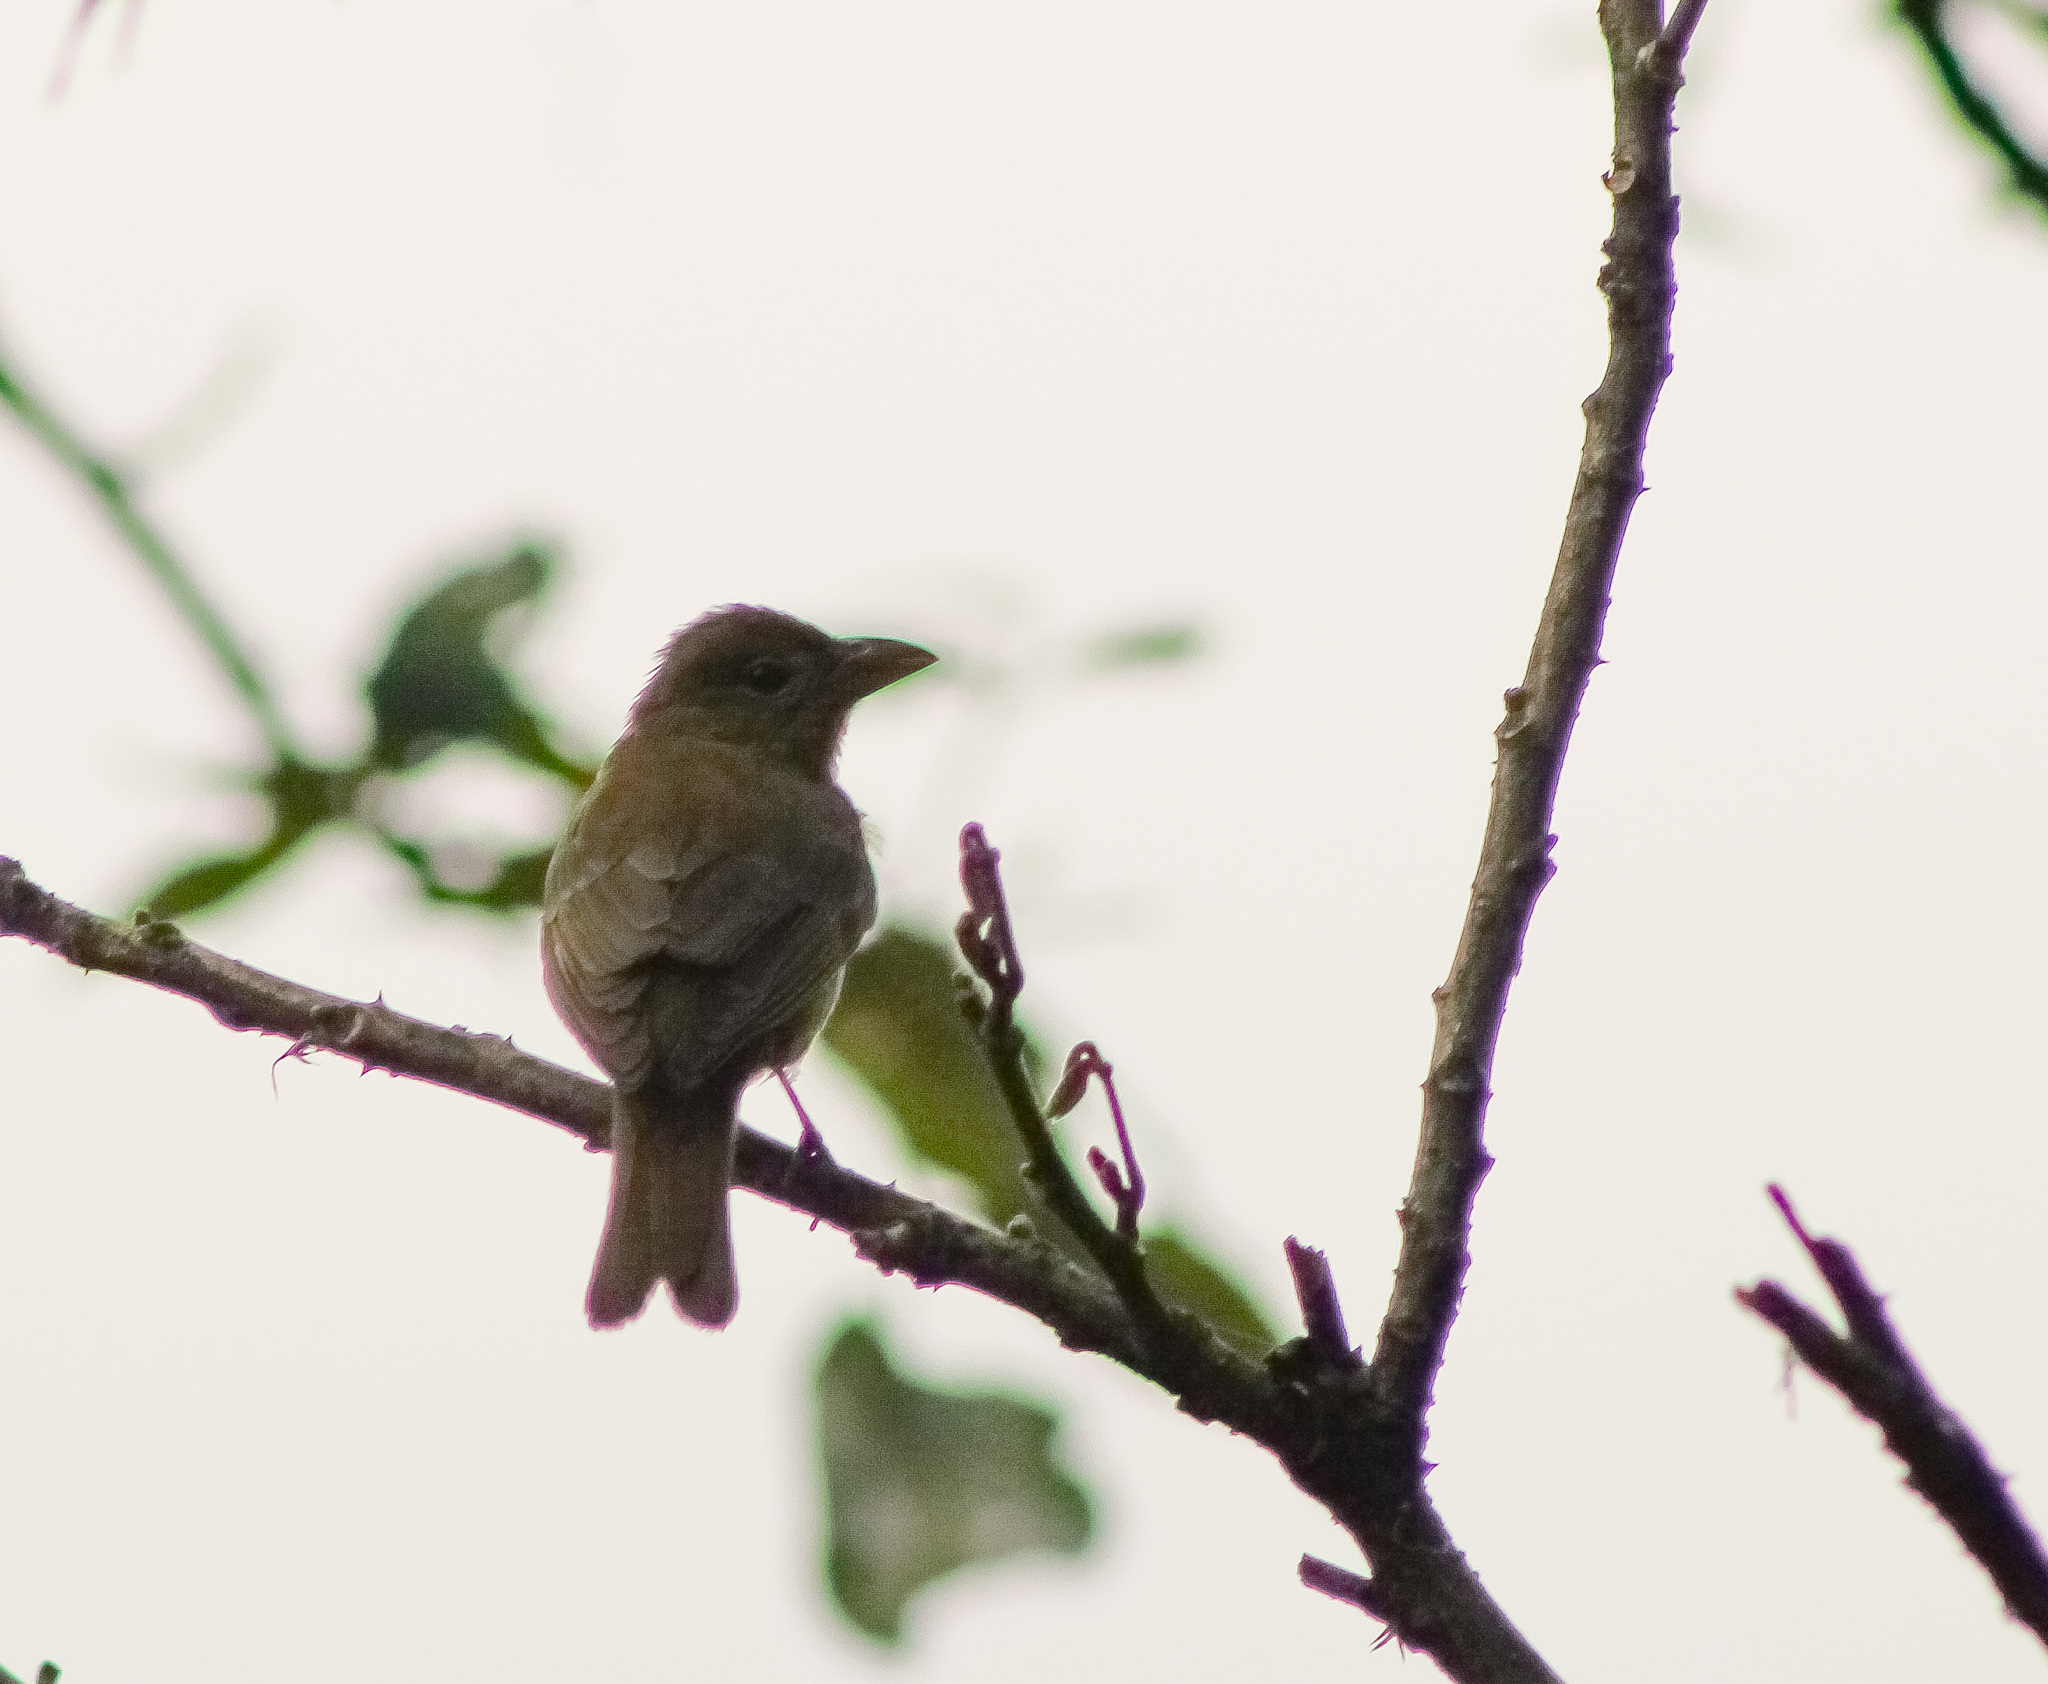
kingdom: Animalia
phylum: Chordata
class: Aves
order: Passeriformes
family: Cardinalidae
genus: Piranga
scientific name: Piranga rubra
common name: Summer tanager
